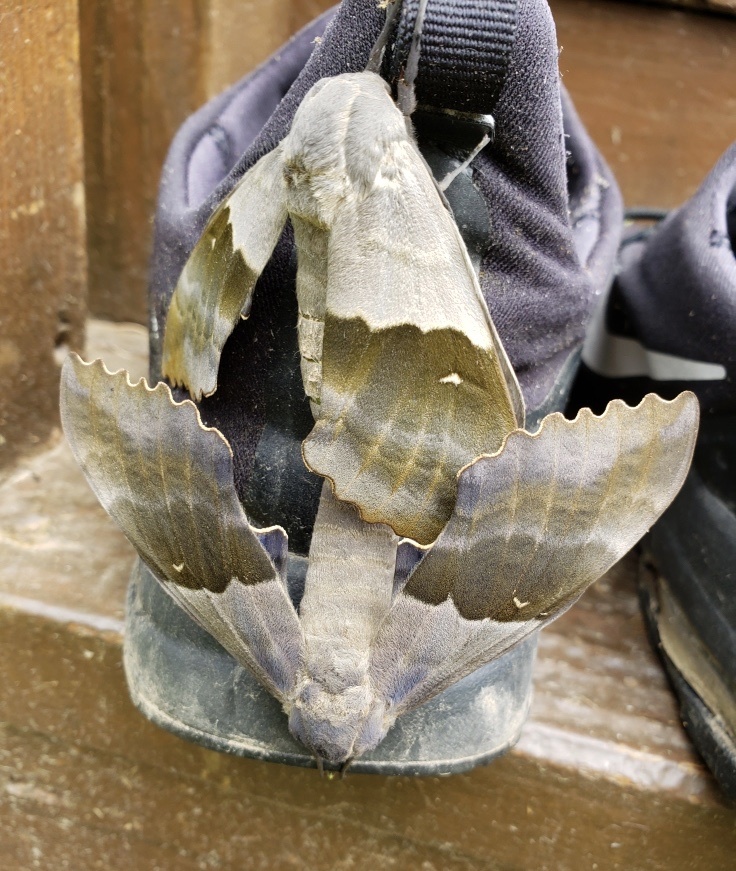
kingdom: Animalia
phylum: Arthropoda
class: Insecta
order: Lepidoptera
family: Sphingidae
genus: Pachysphinx
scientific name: Pachysphinx modesta
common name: Big poplar sphinx
